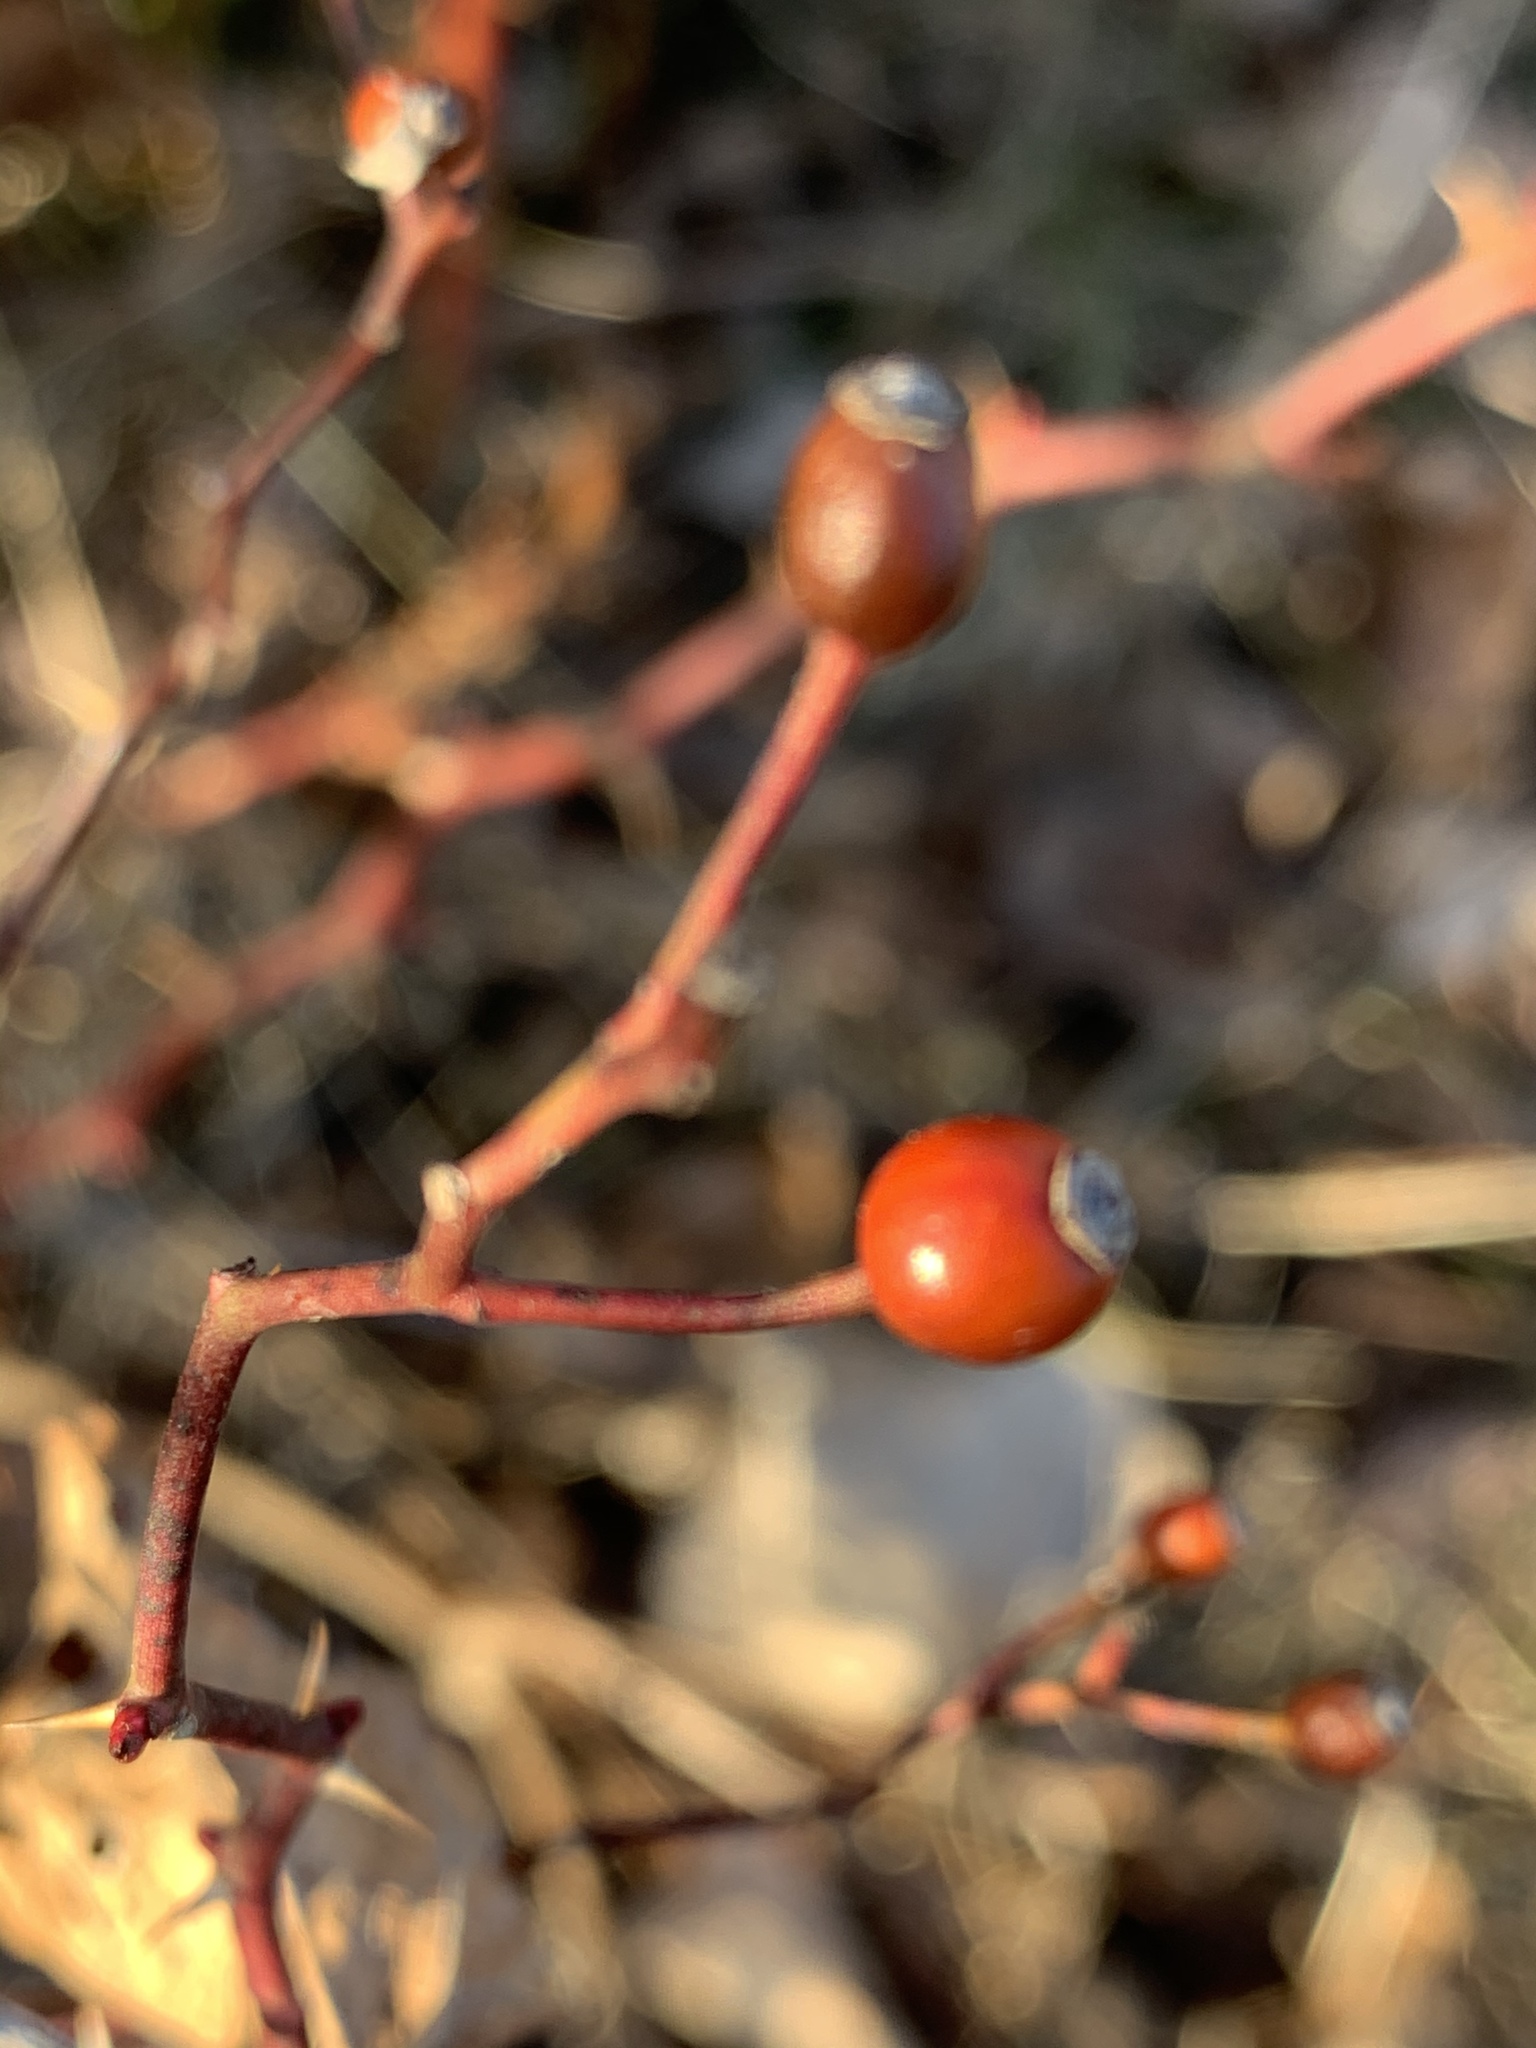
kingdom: Plantae
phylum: Tracheophyta
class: Magnoliopsida
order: Rosales
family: Rosaceae
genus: Rosa
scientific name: Rosa multiflora
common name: Multiflora rose
